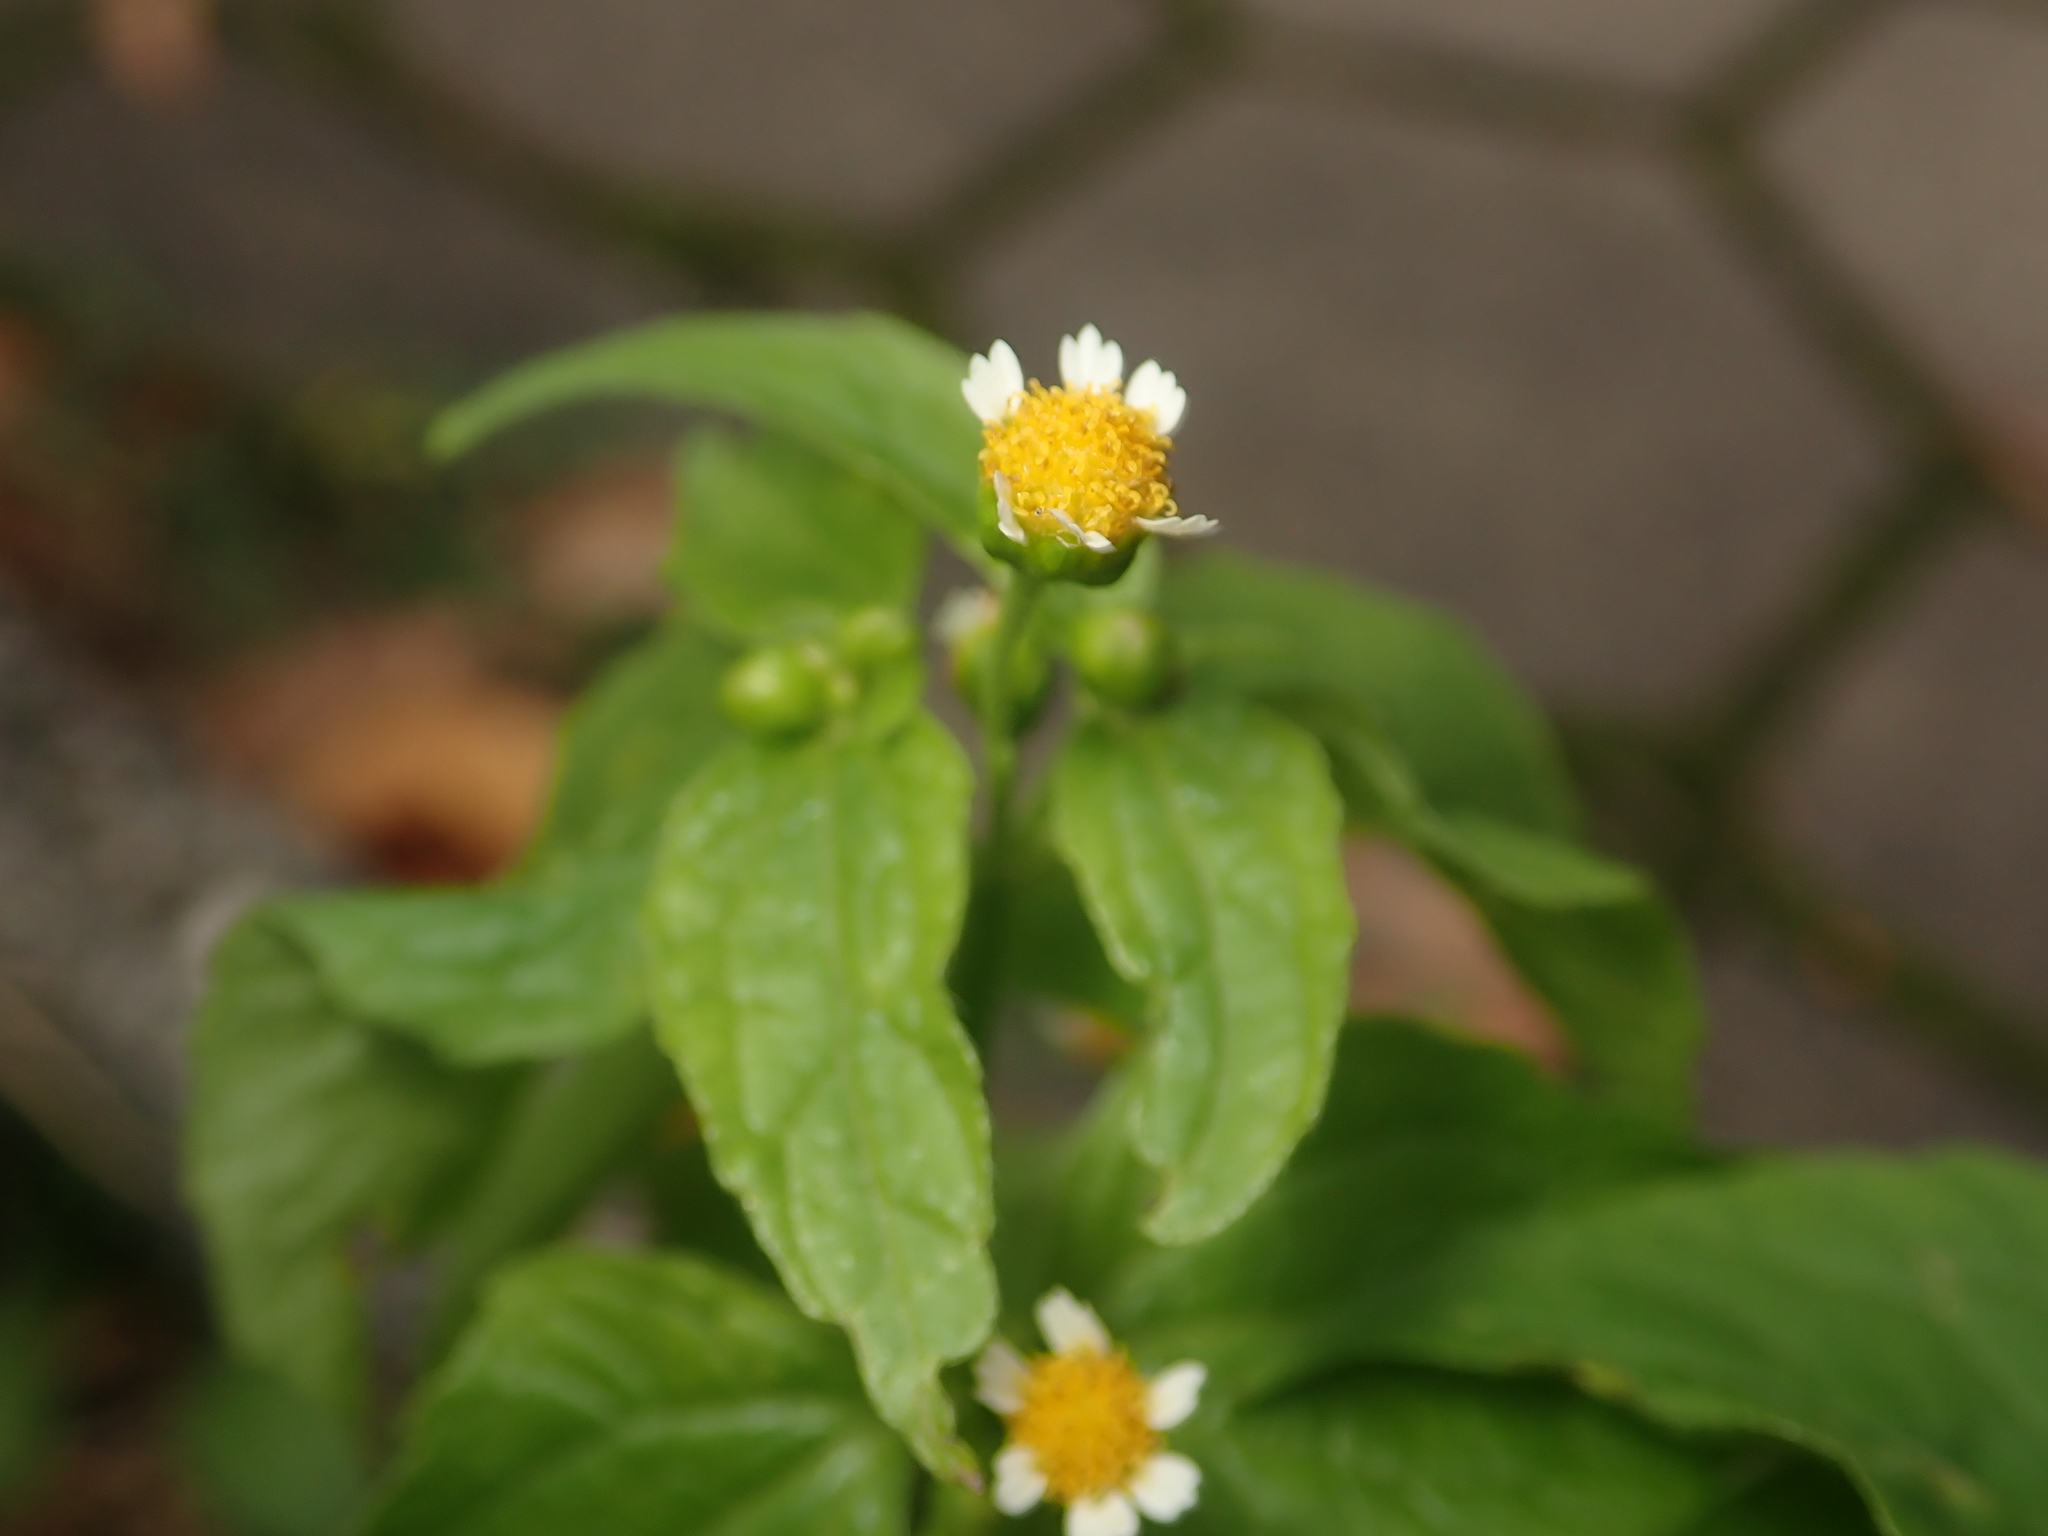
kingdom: Plantae
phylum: Tracheophyta
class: Magnoliopsida
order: Asterales
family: Asteraceae
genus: Galinsoga
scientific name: Galinsoga parviflora
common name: Gallant soldier
